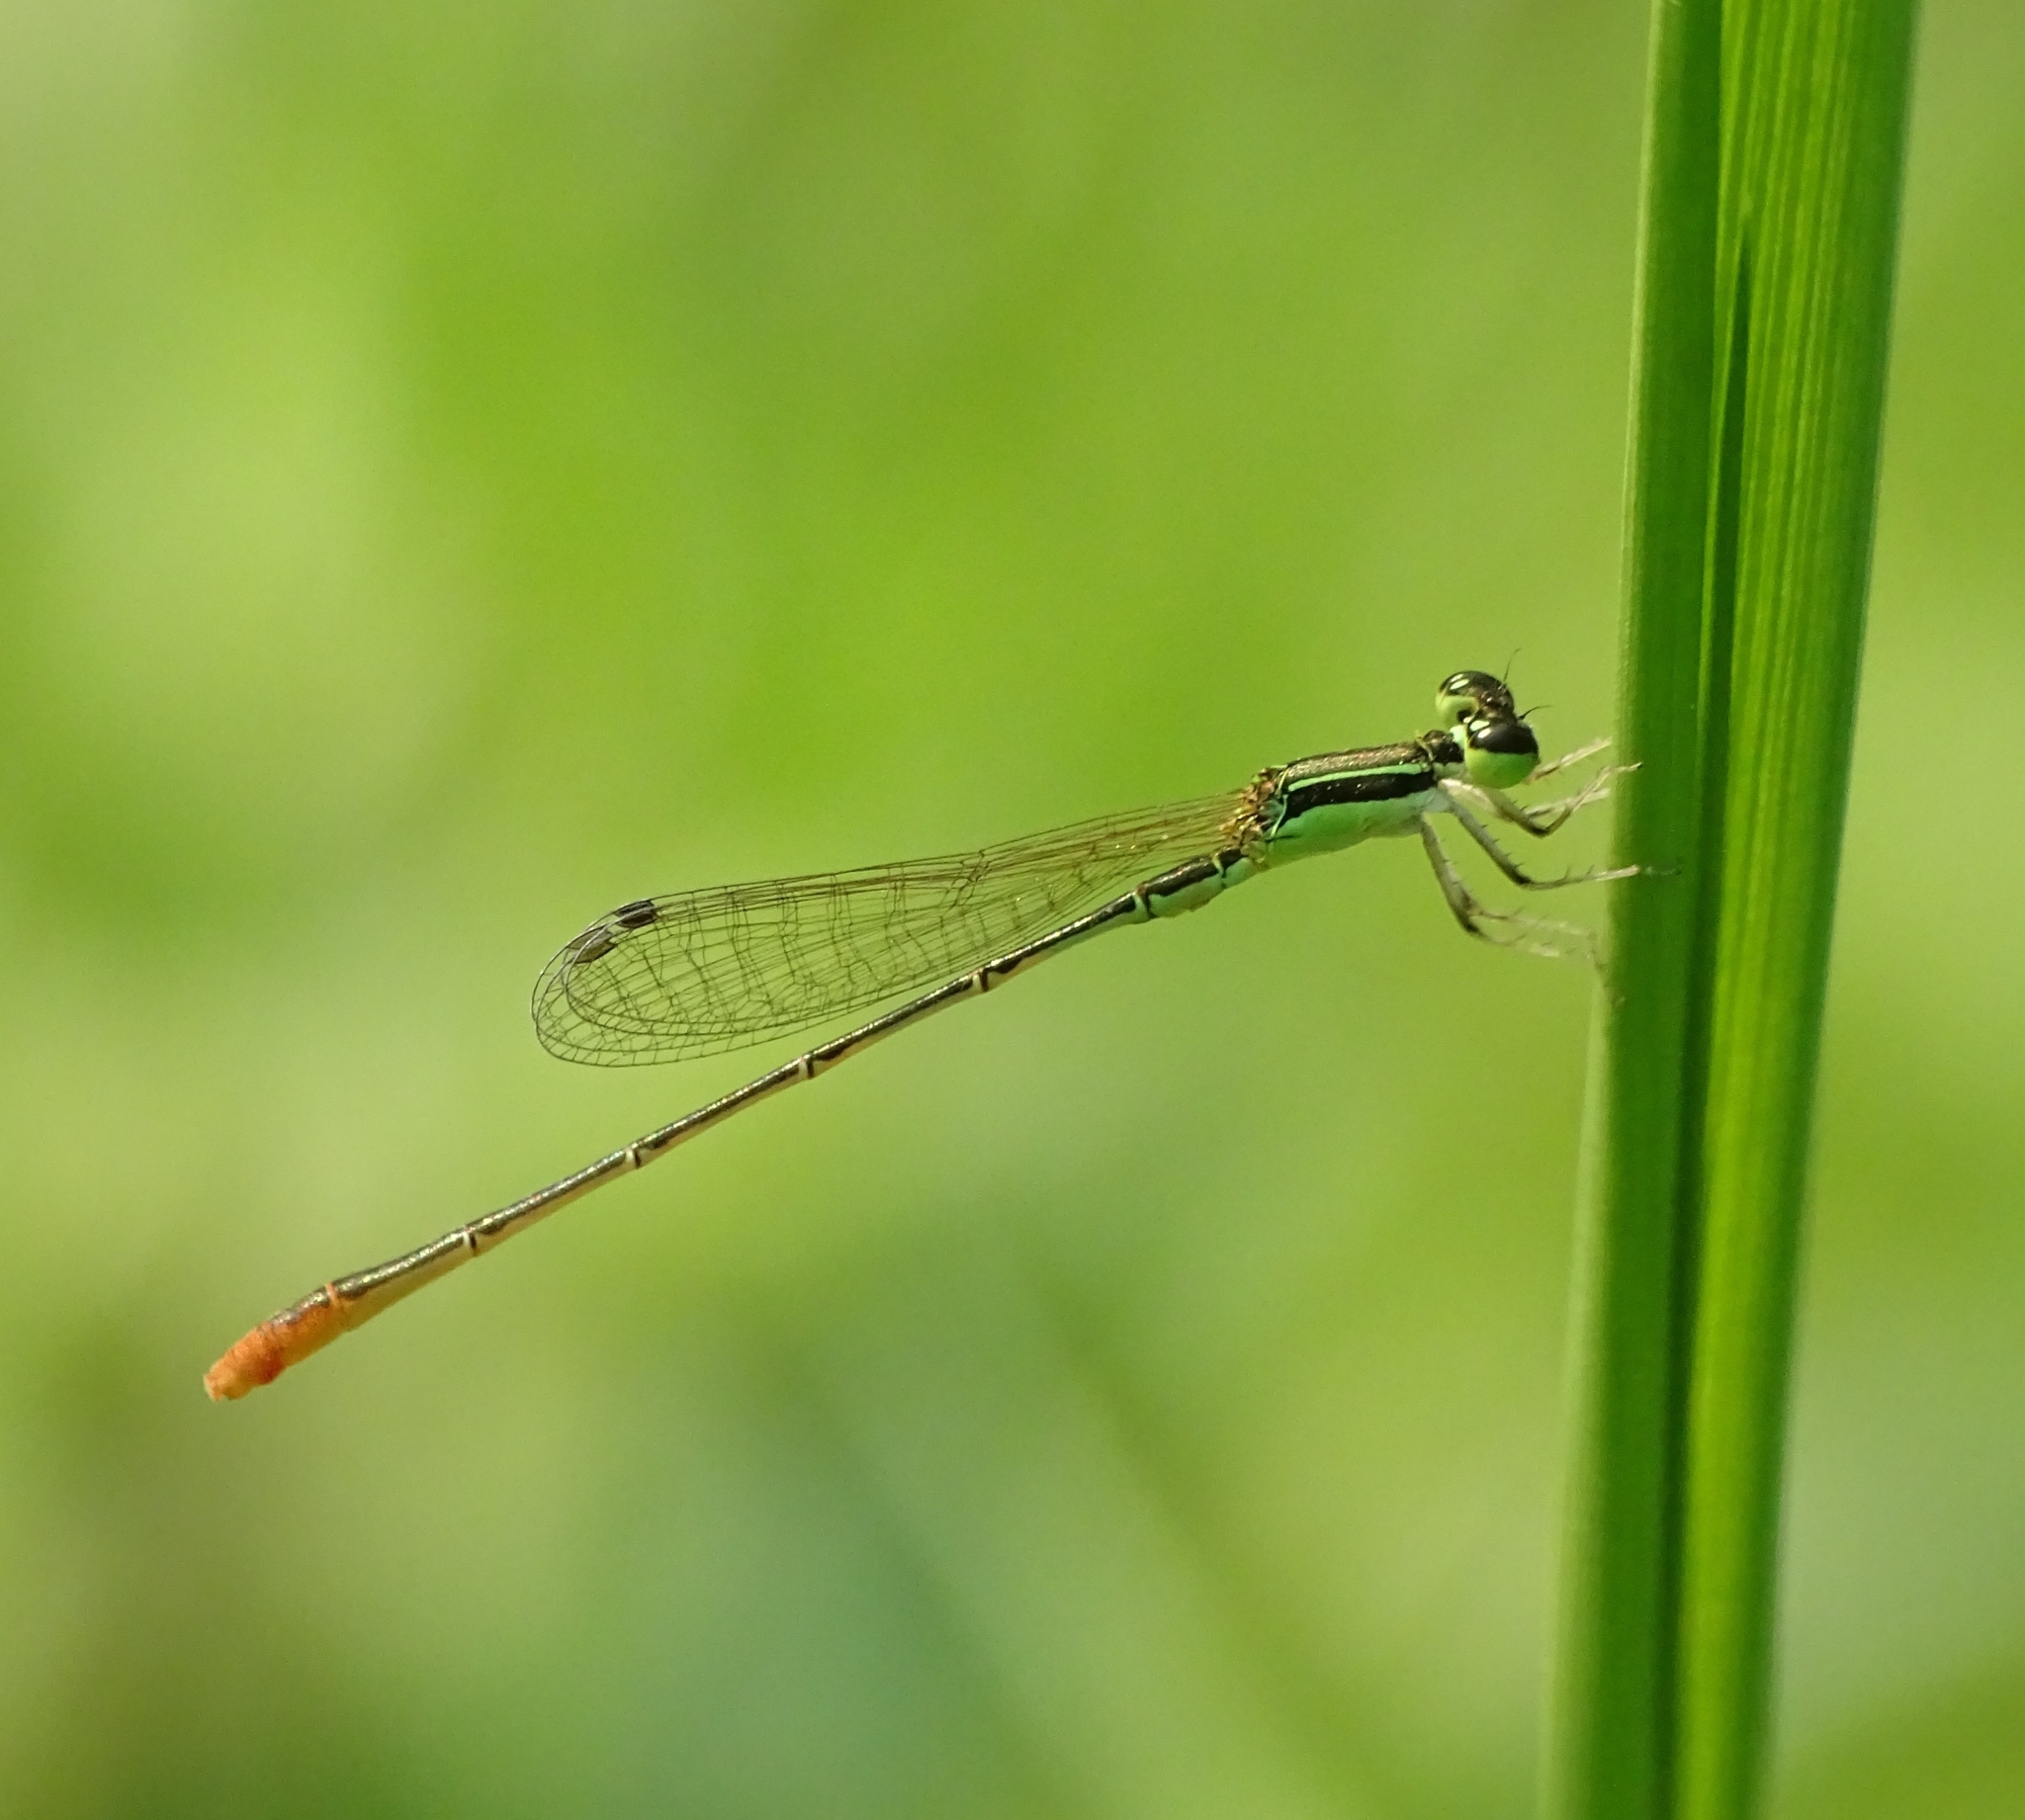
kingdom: Animalia
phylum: Arthropoda
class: Insecta
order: Odonata
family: Coenagrionidae
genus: Agriocnemis
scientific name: Agriocnemis pygmaea
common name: Pygmy wisp
